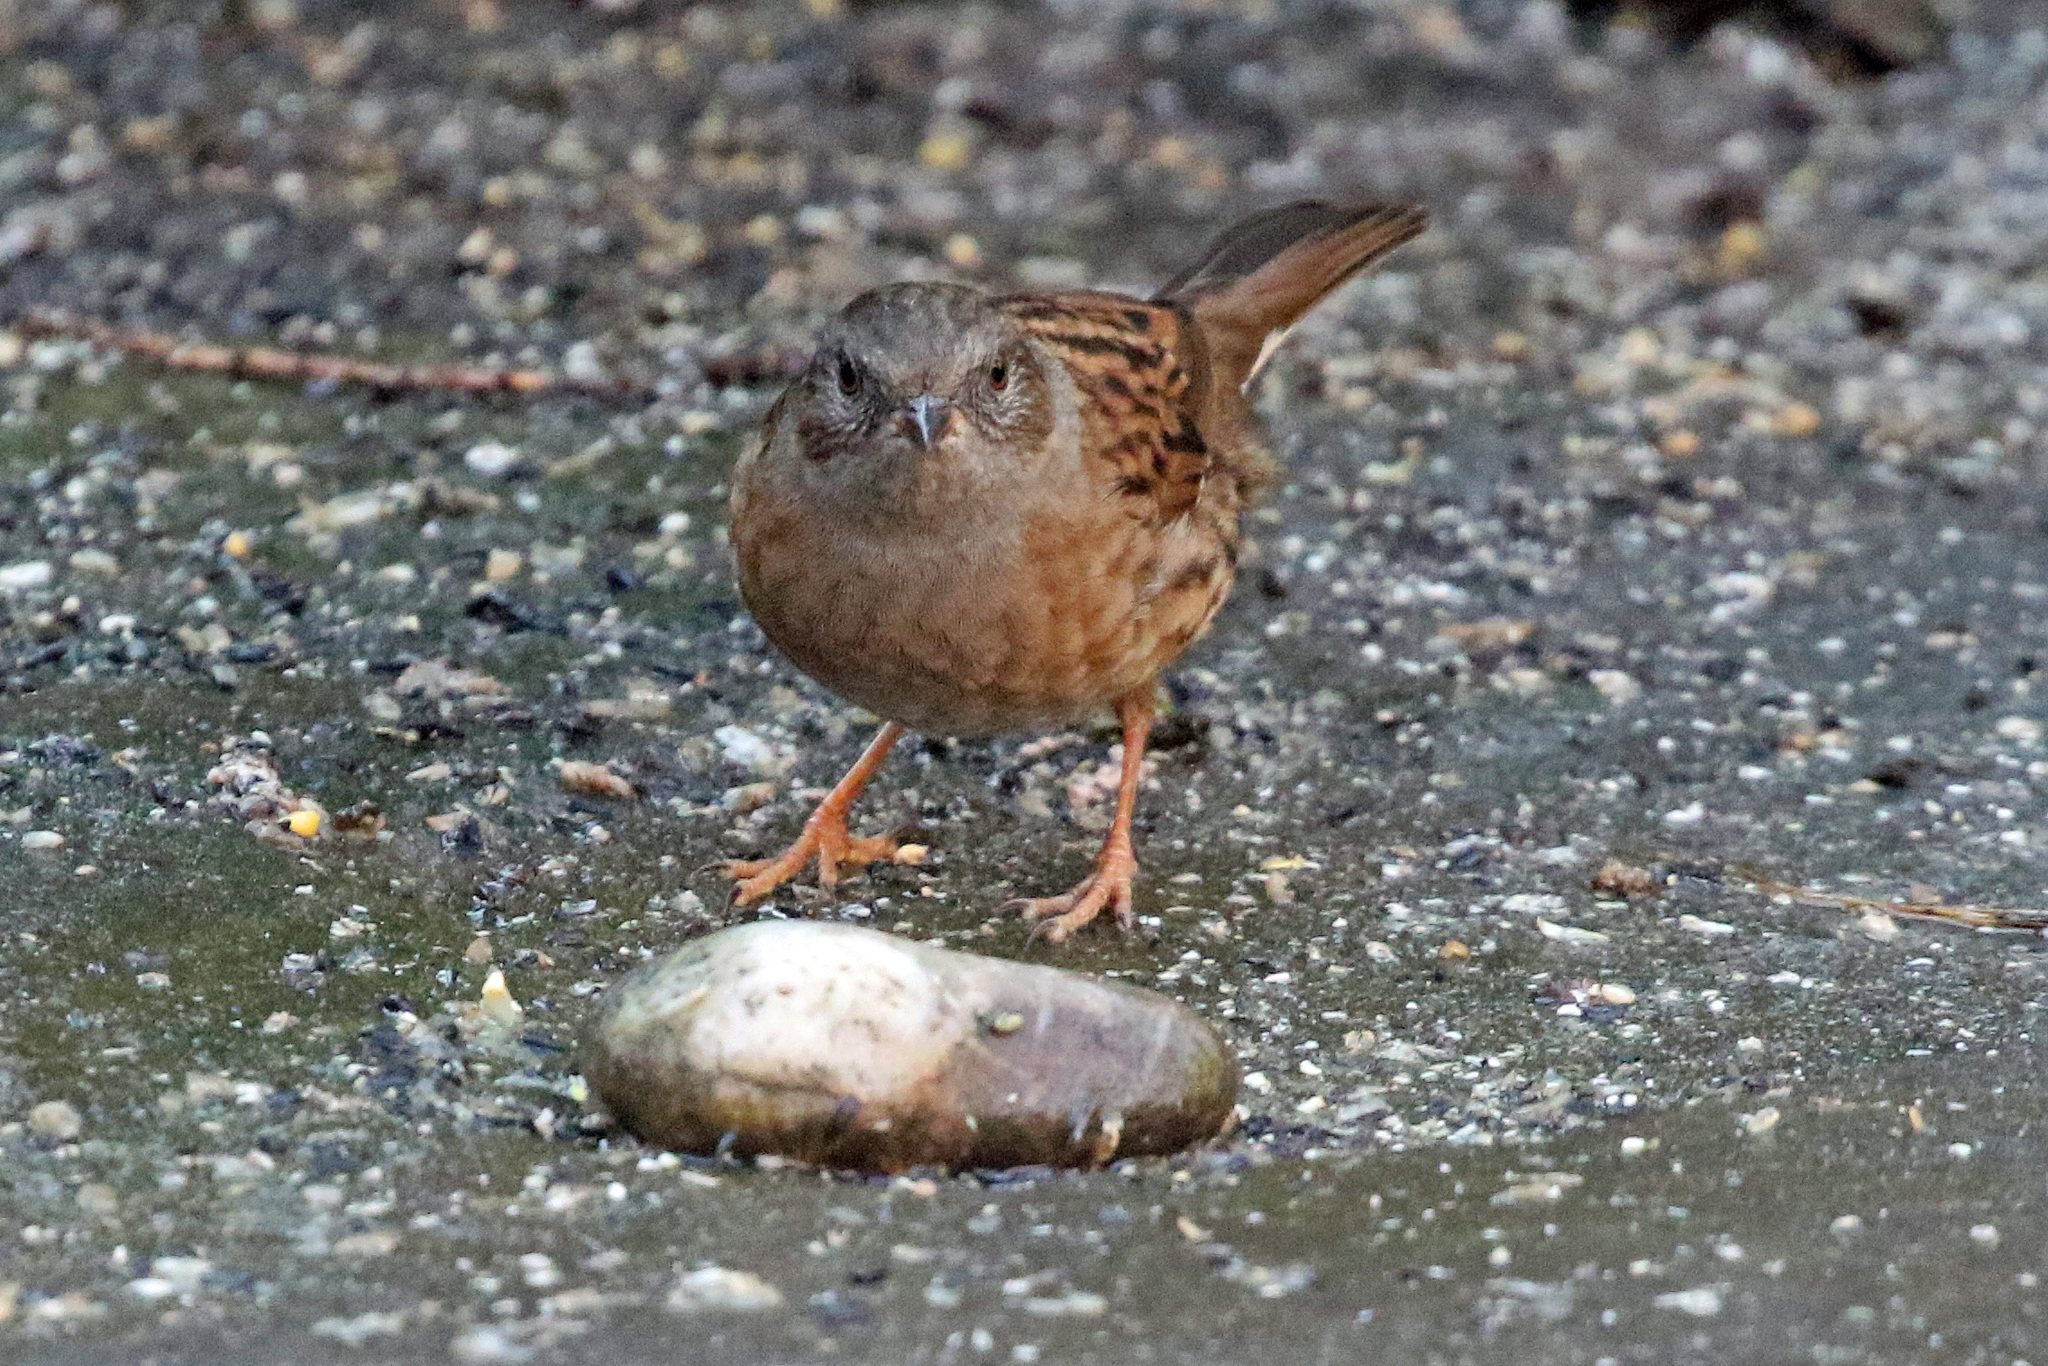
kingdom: Animalia
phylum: Chordata
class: Aves
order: Passeriformes
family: Prunellidae
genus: Prunella
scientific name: Prunella modularis
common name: Dunnock
